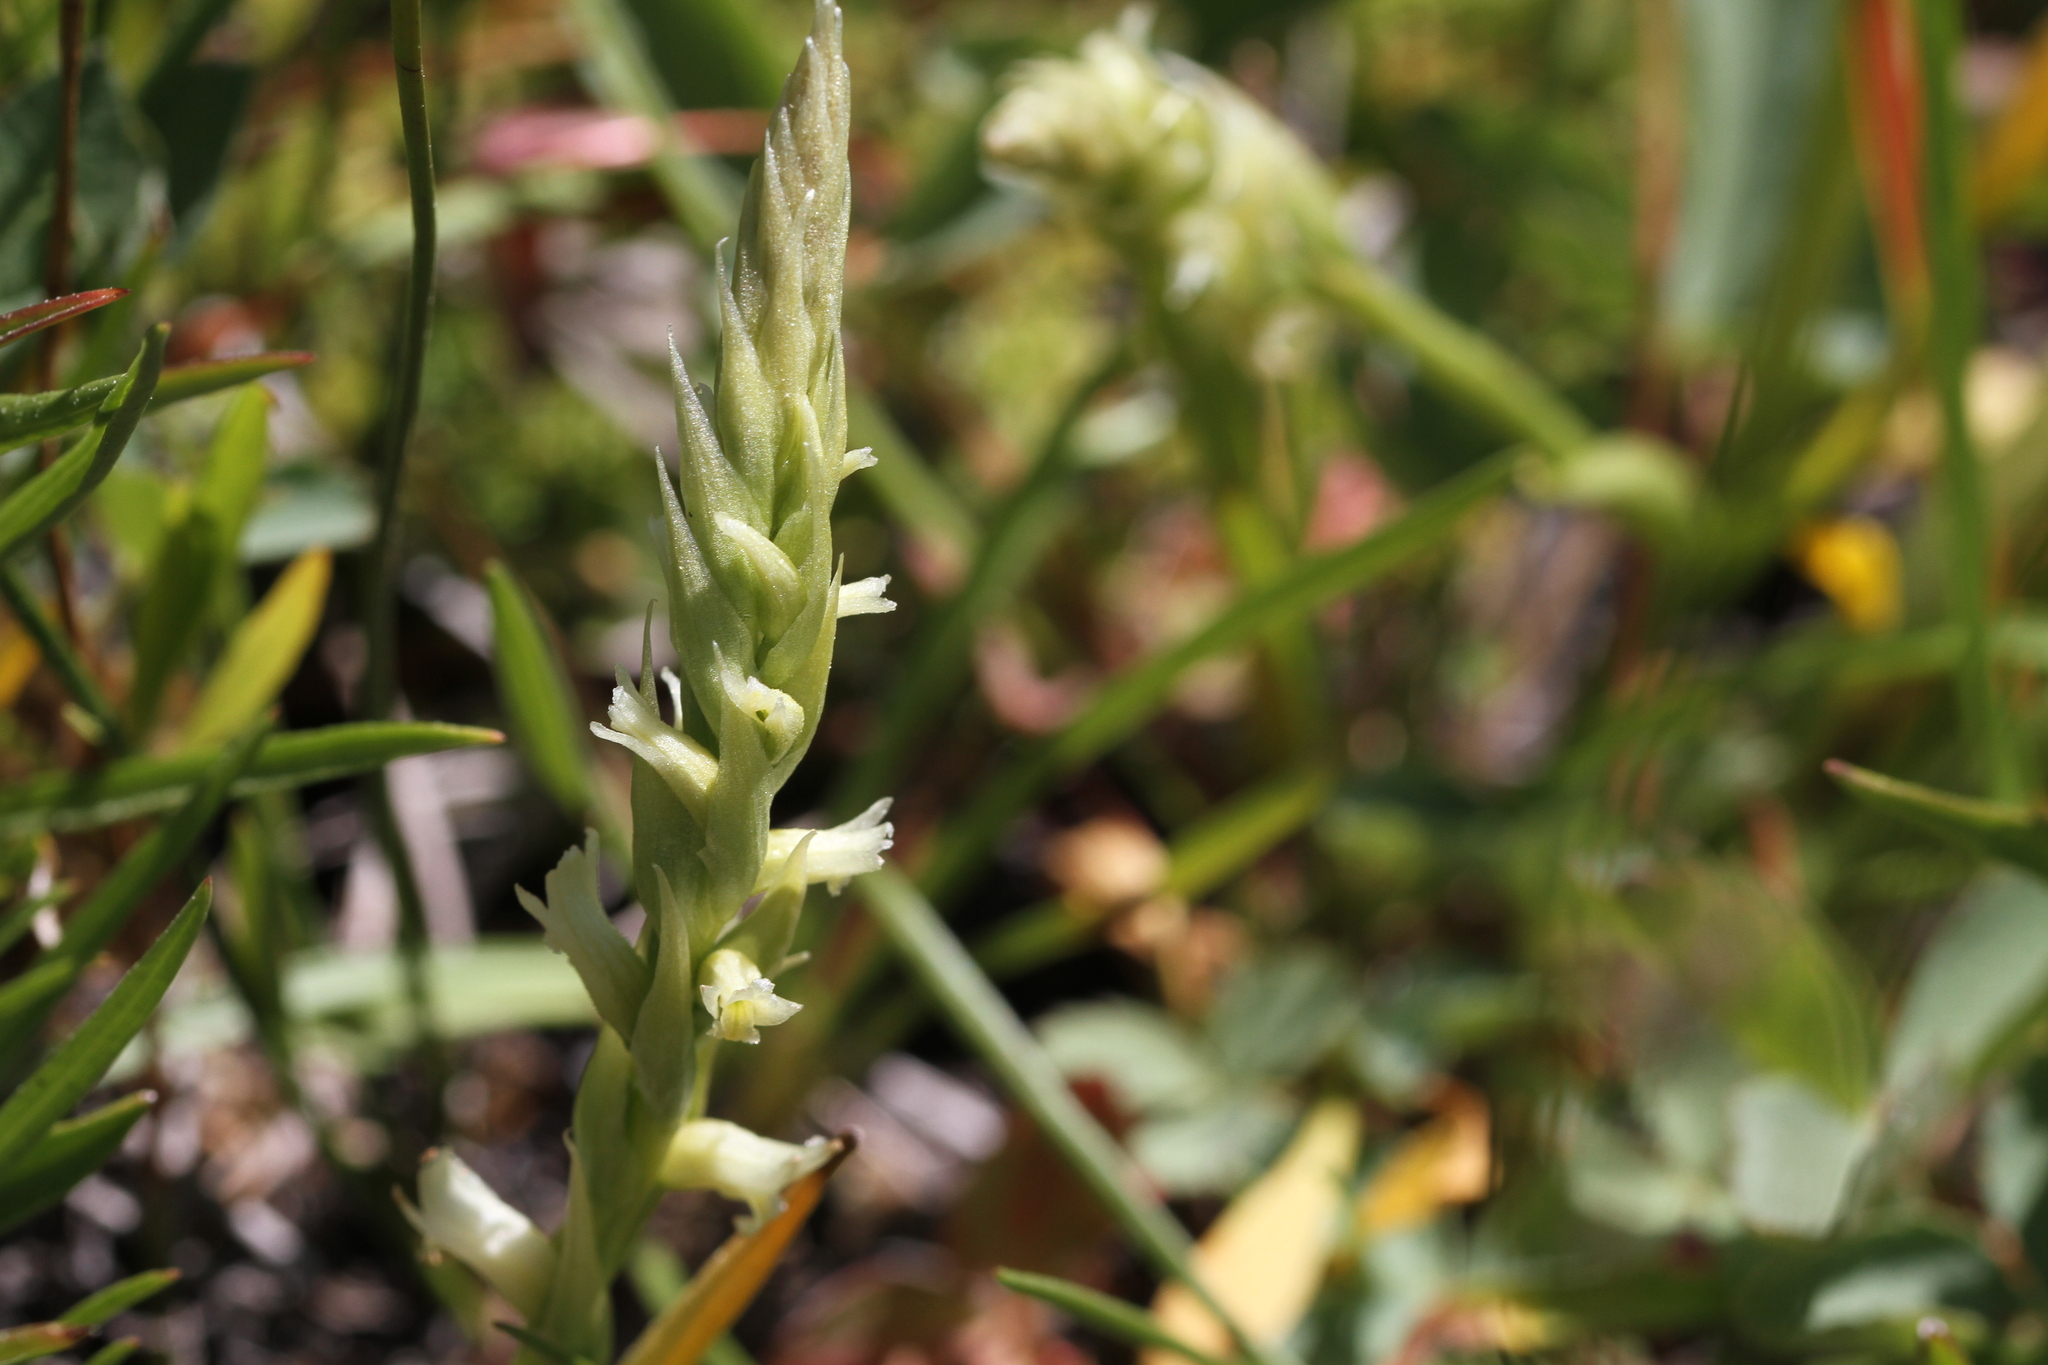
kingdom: Plantae
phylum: Tracheophyta
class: Liliopsida
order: Asparagales
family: Orchidaceae
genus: Spiranthes
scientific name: Spiranthes stellata
